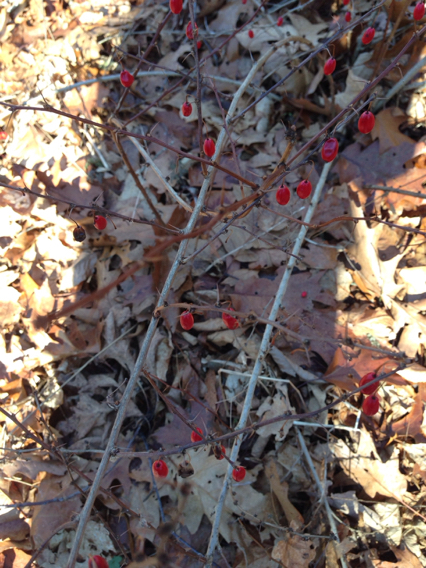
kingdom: Plantae
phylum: Tracheophyta
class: Magnoliopsida
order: Ranunculales
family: Berberidaceae
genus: Berberis
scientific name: Berberis thunbergii
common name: Japanese barberry
